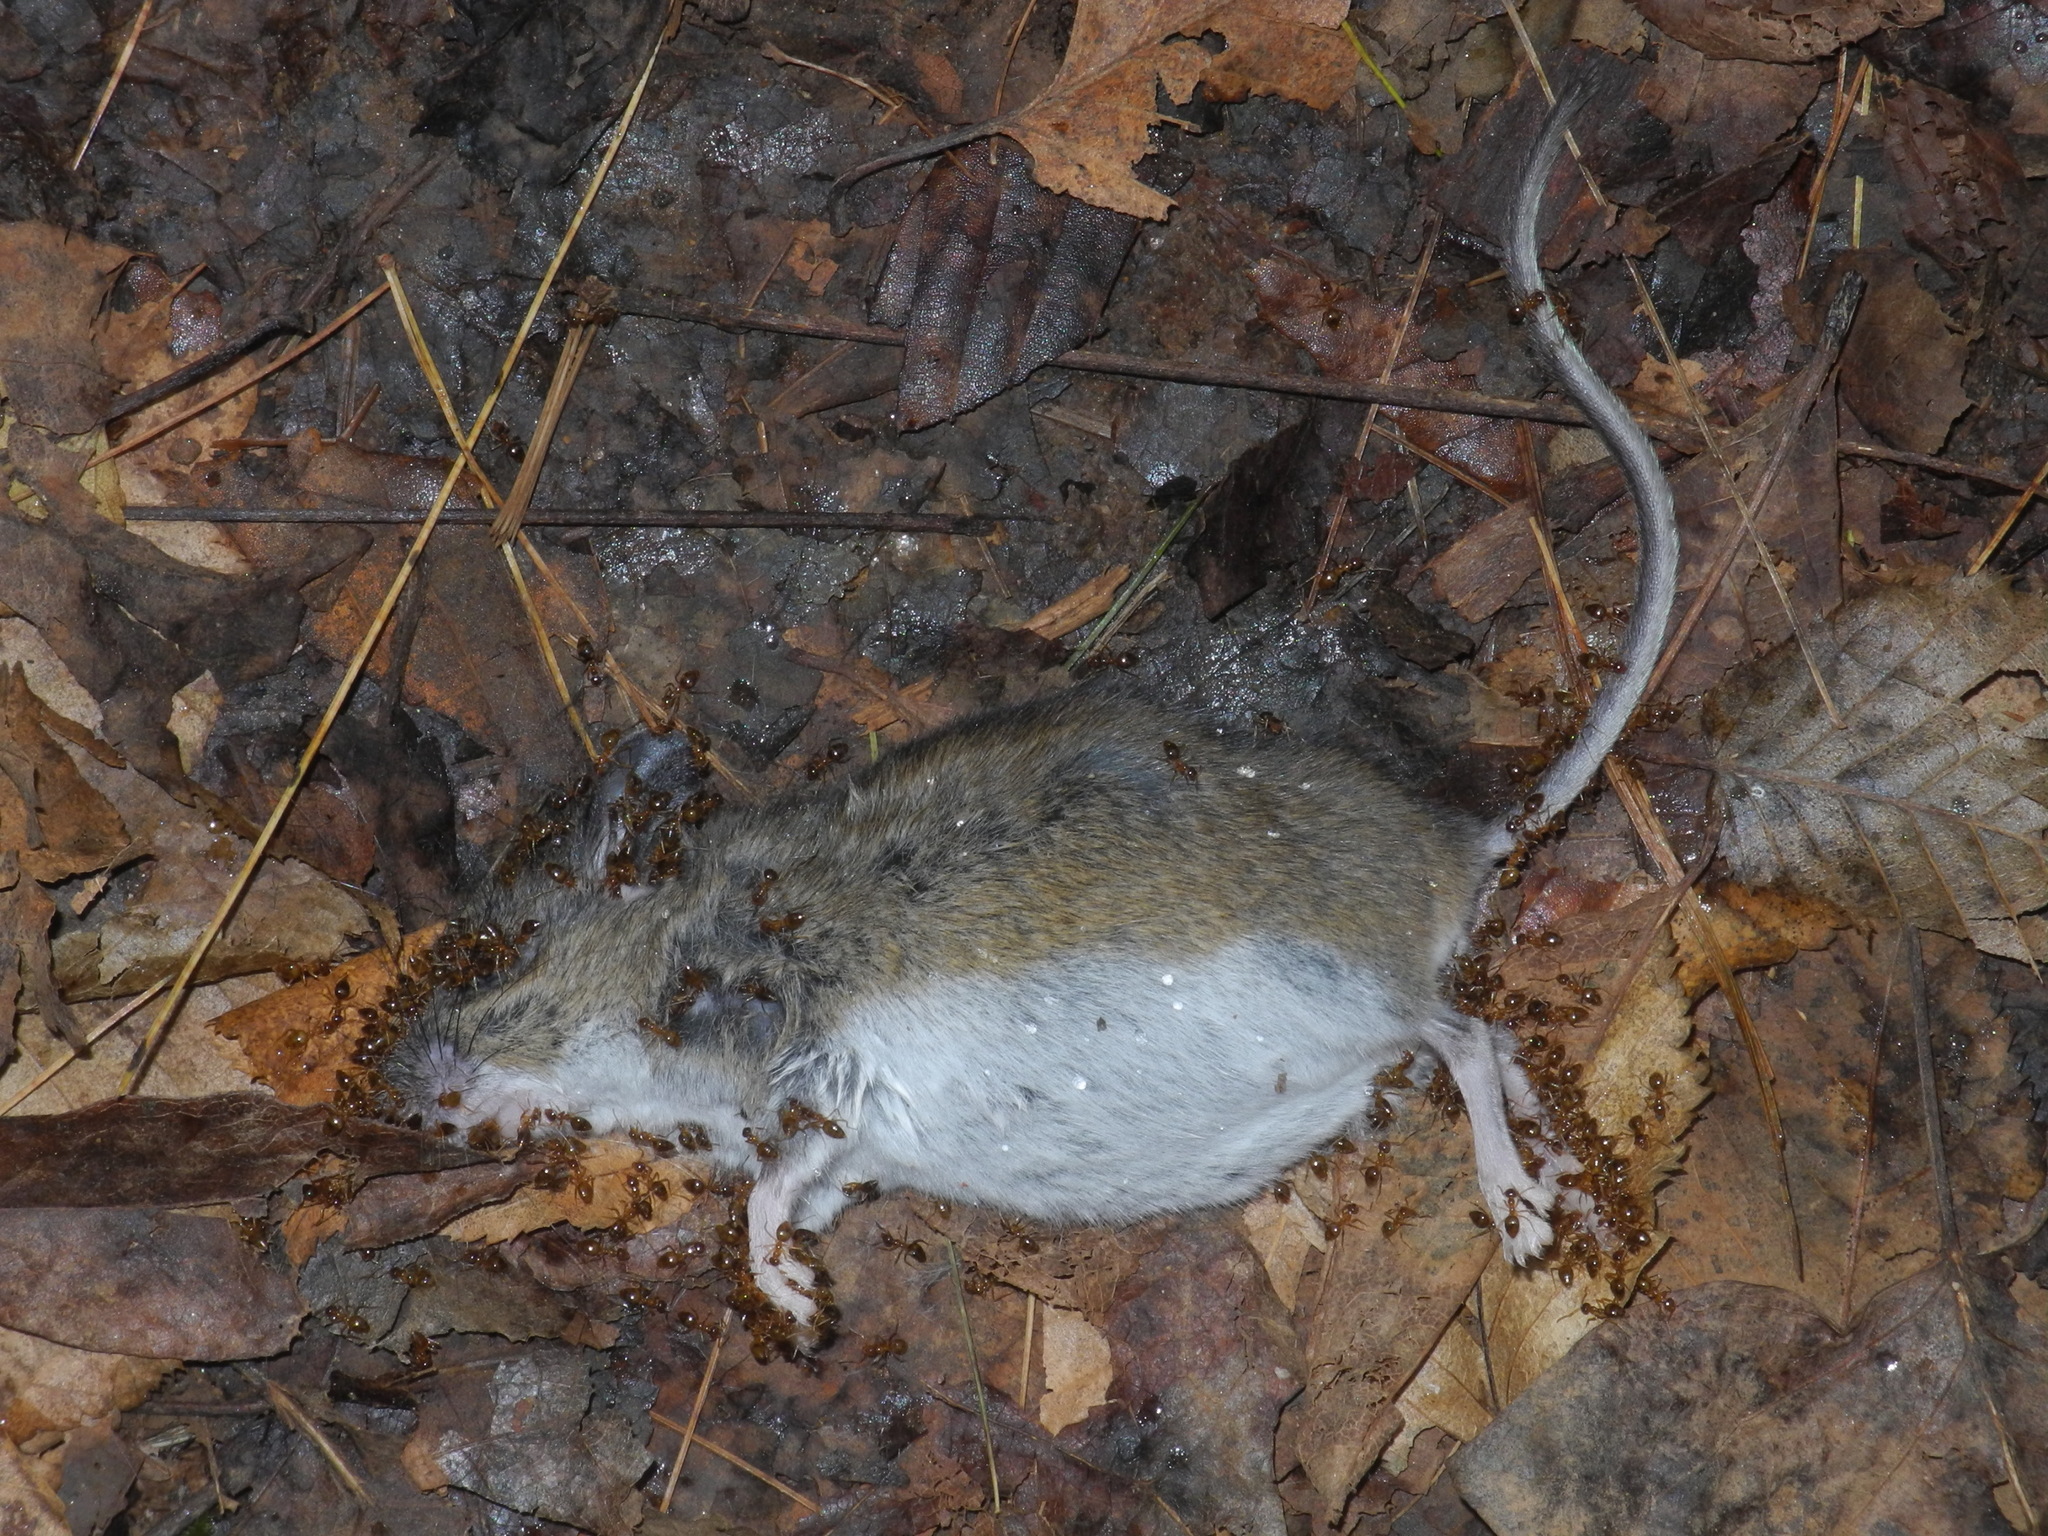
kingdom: Animalia
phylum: Chordata
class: Mammalia
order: Rodentia
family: Cricetidae
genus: Peromyscus
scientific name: Peromyscus leucopus
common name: White-footed deermouse
